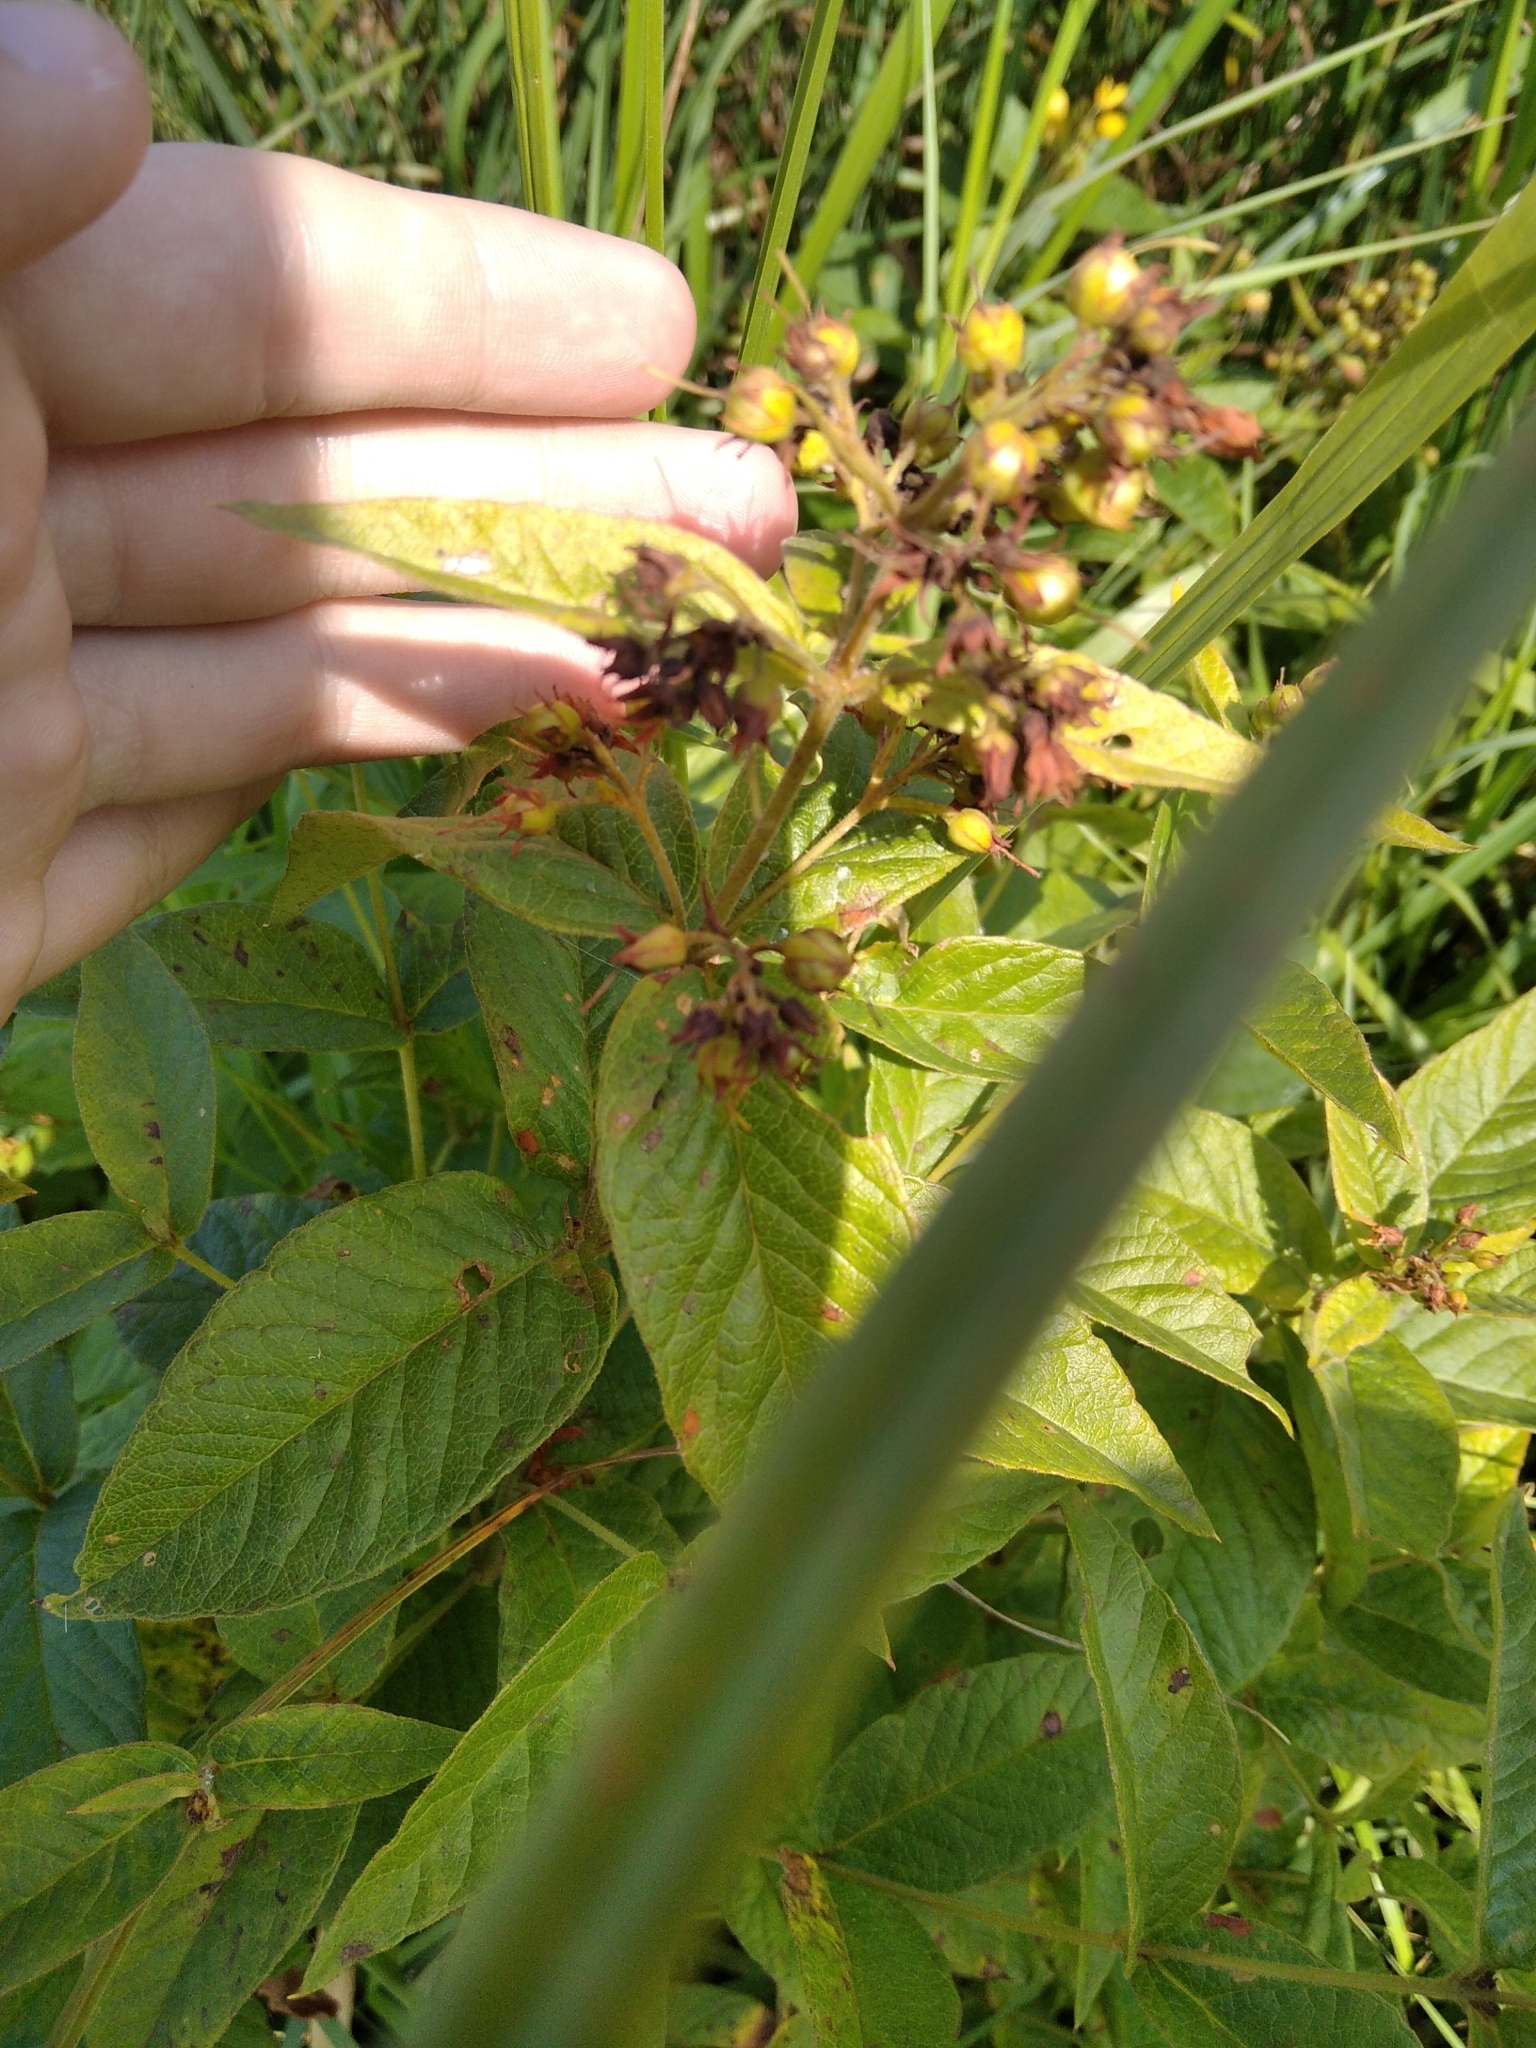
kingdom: Plantae
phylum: Tracheophyta
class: Magnoliopsida
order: Ericales
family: Primulaceae
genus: Lysimachia
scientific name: Lysimachia vulgaris
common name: Yellow loosestrife
